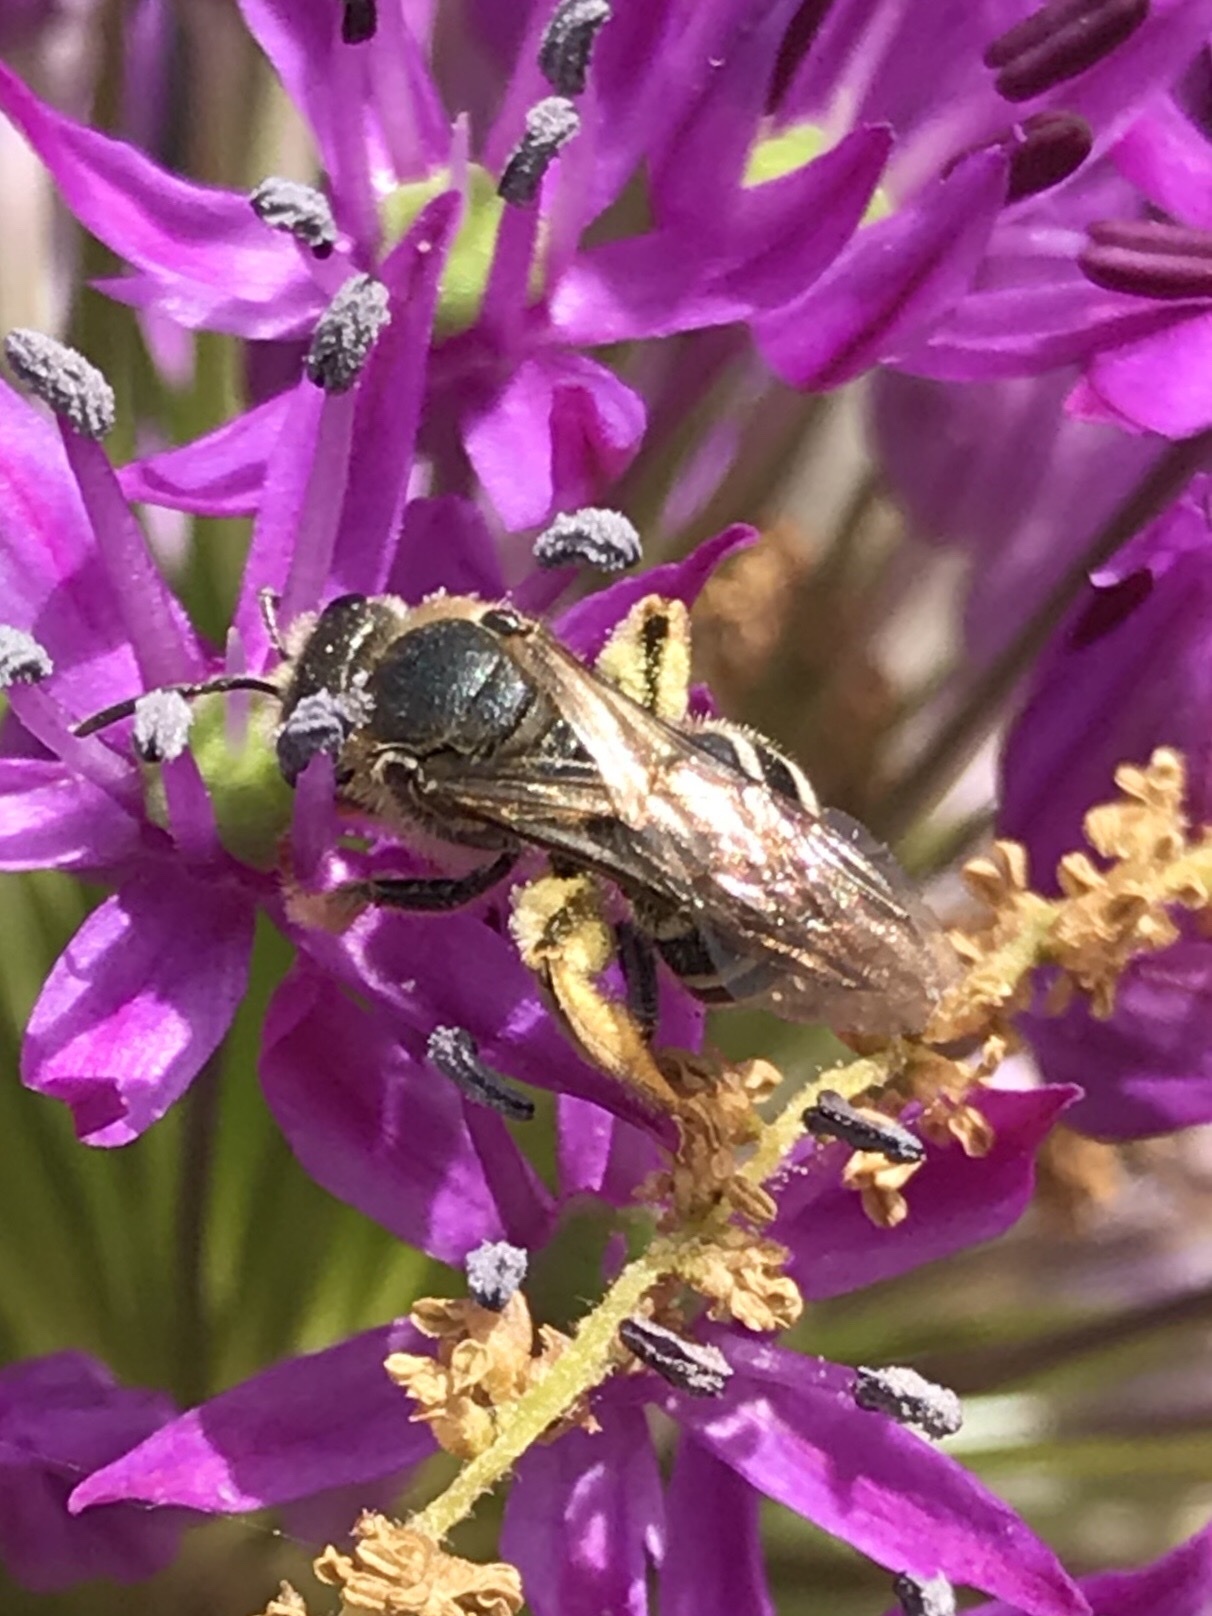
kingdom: Animalia
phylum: Arthropoda
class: Insecta
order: Hymenoptera
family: Halictidae
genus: Halictus
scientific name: Halictus rubicundus
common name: Orange-legged furrow bee
